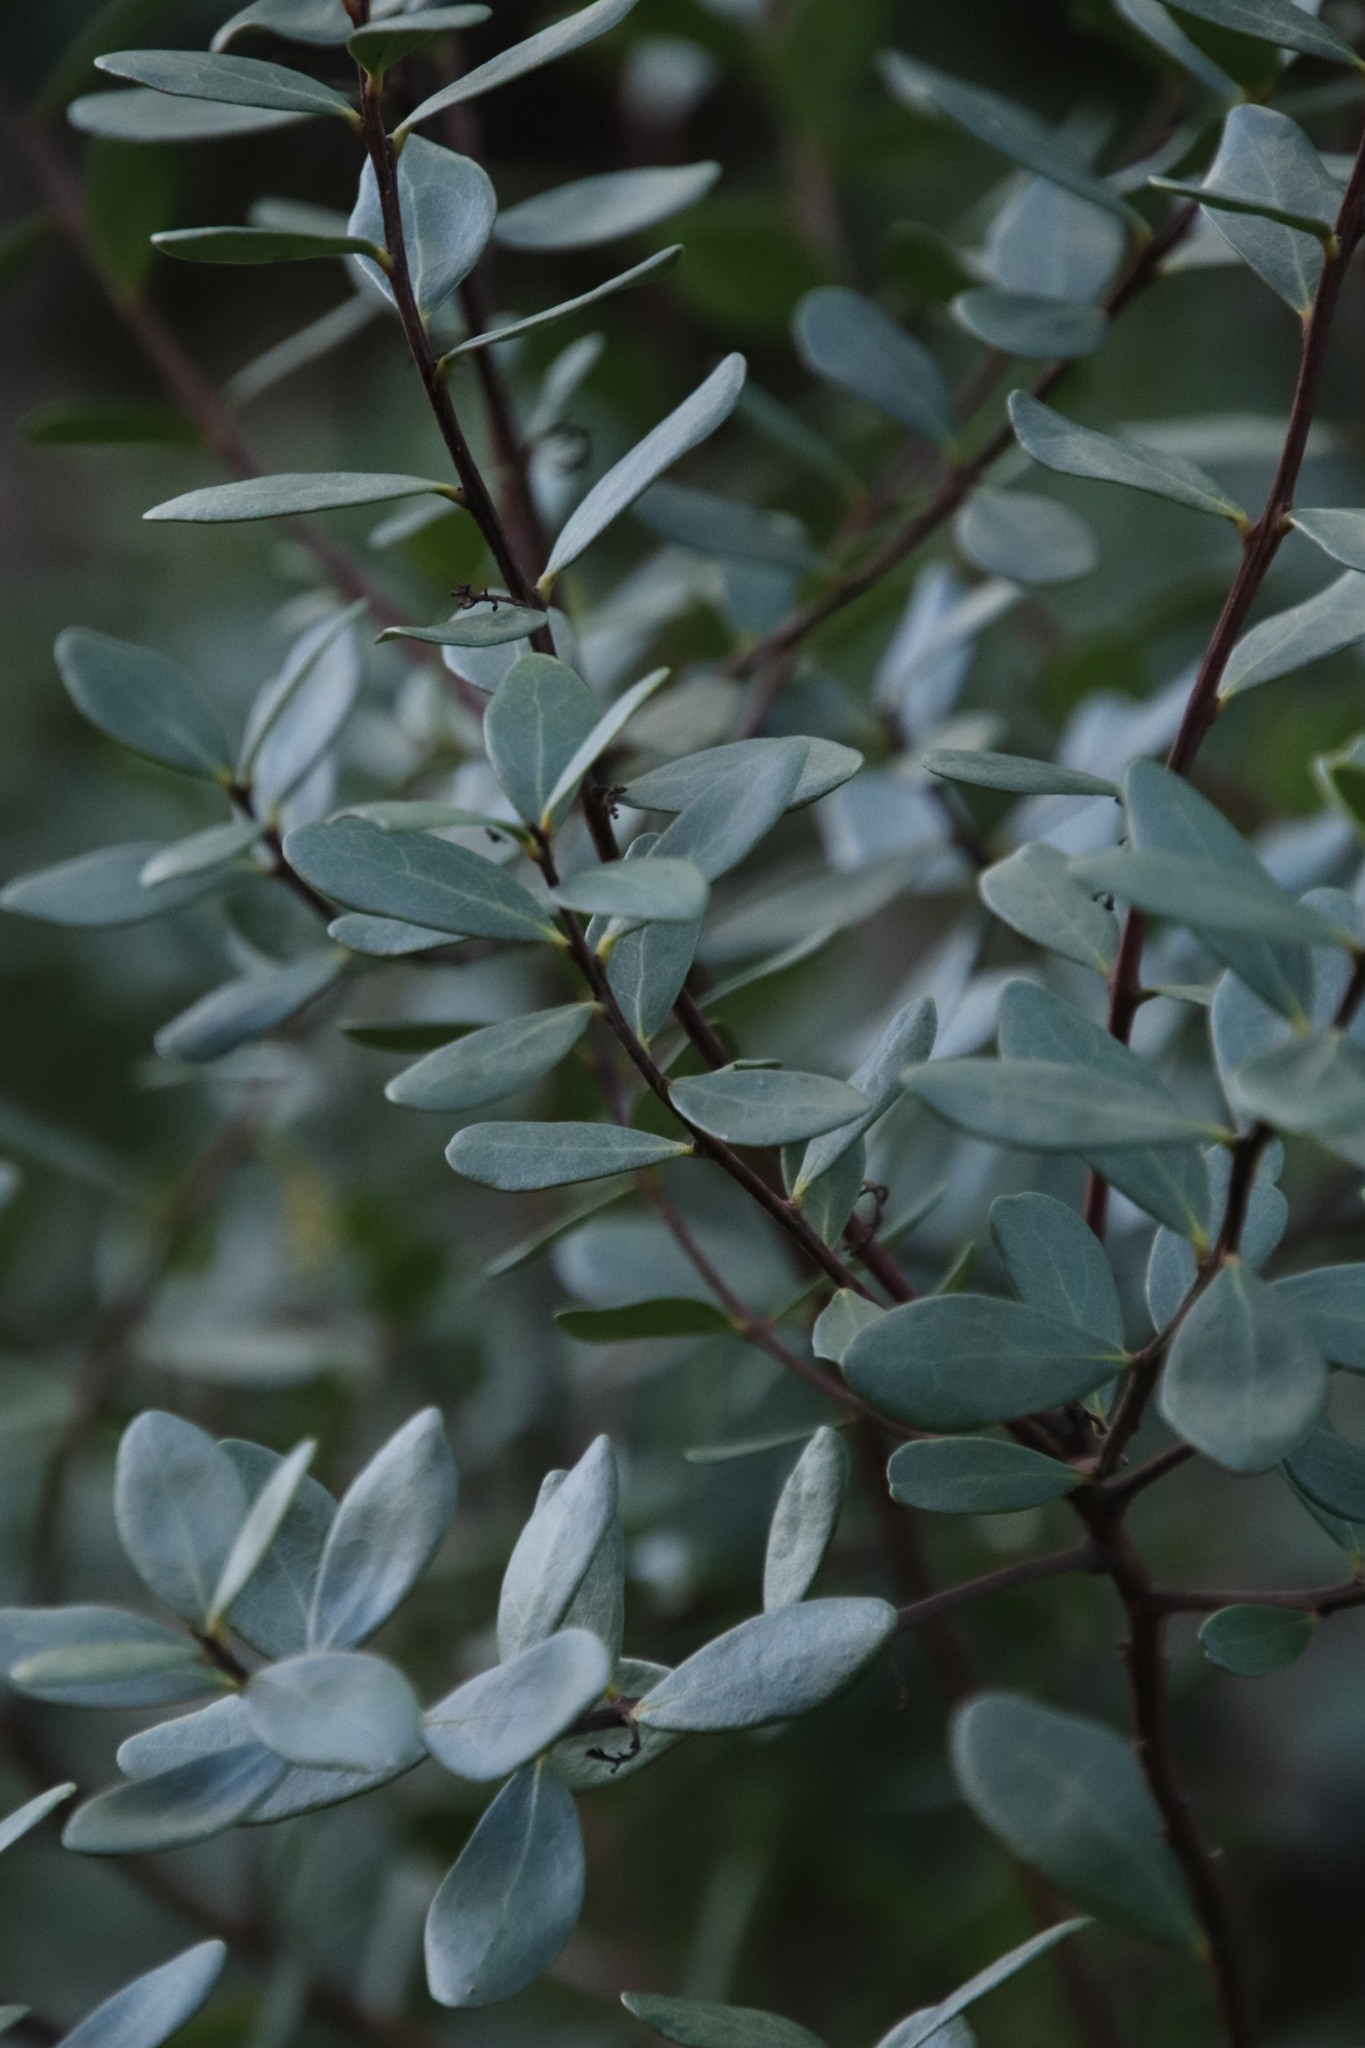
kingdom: Plantae
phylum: Tracheophyta
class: Magnoliopsida
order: Ericales
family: Ebenaceae
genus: Euclea
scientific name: Euclea racemosa
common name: Dune guarri
